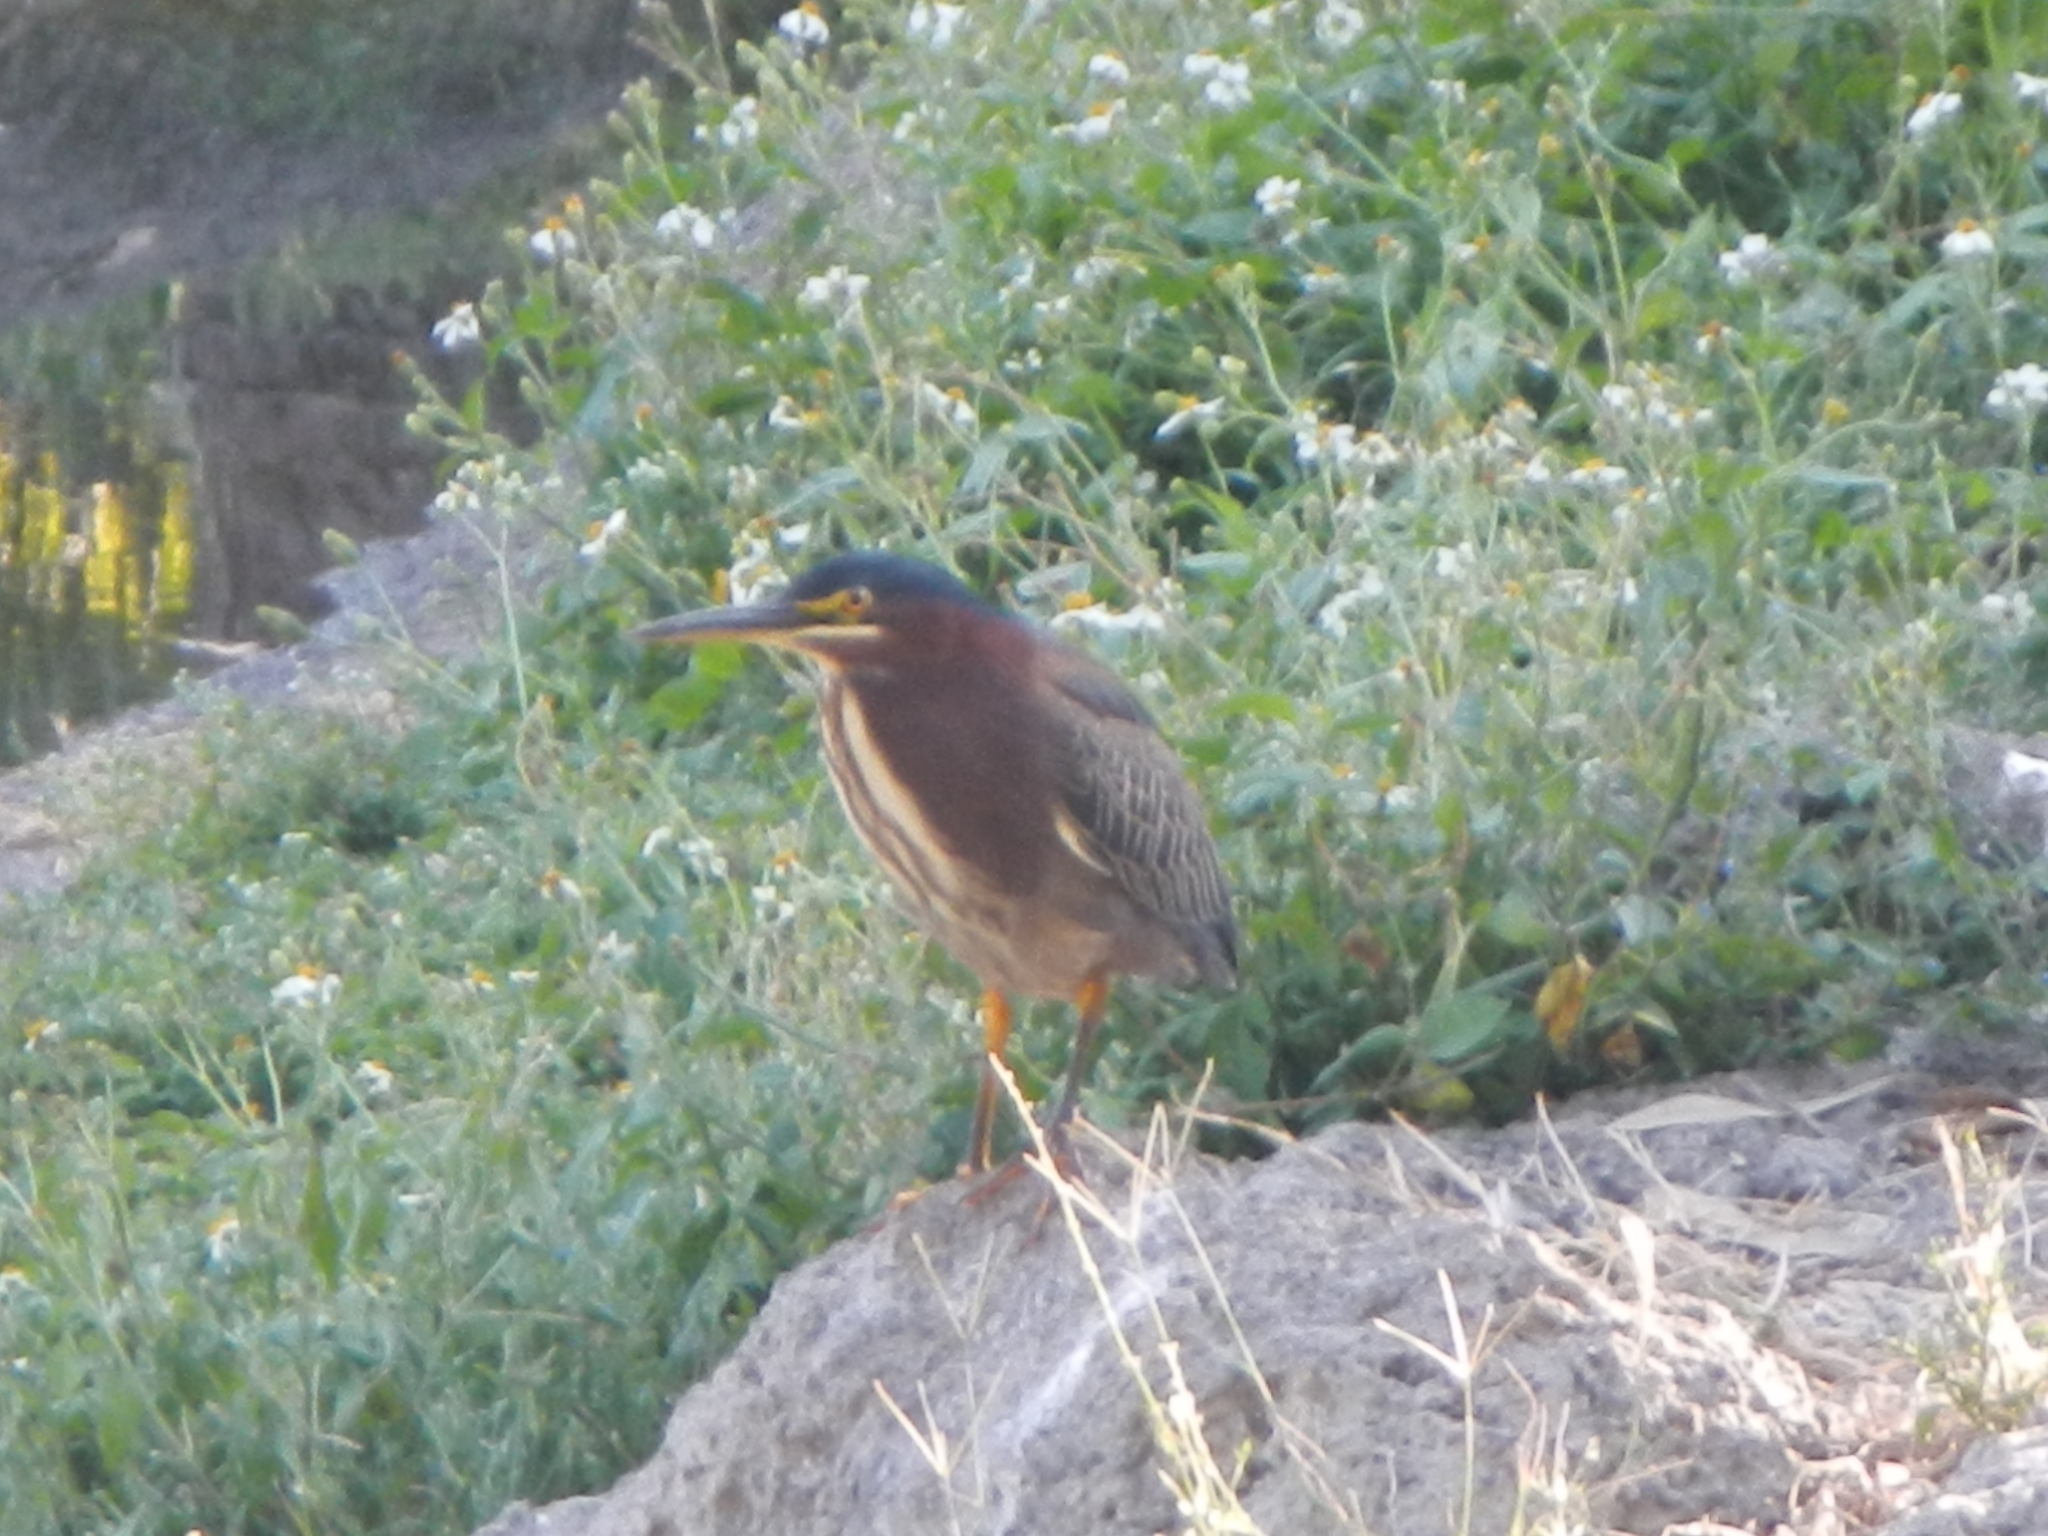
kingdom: Animalia
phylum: Chordata
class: Aves
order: Pelecaniformes
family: Ardeidae
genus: Butorides
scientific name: Butorides virescens
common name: Green heron
